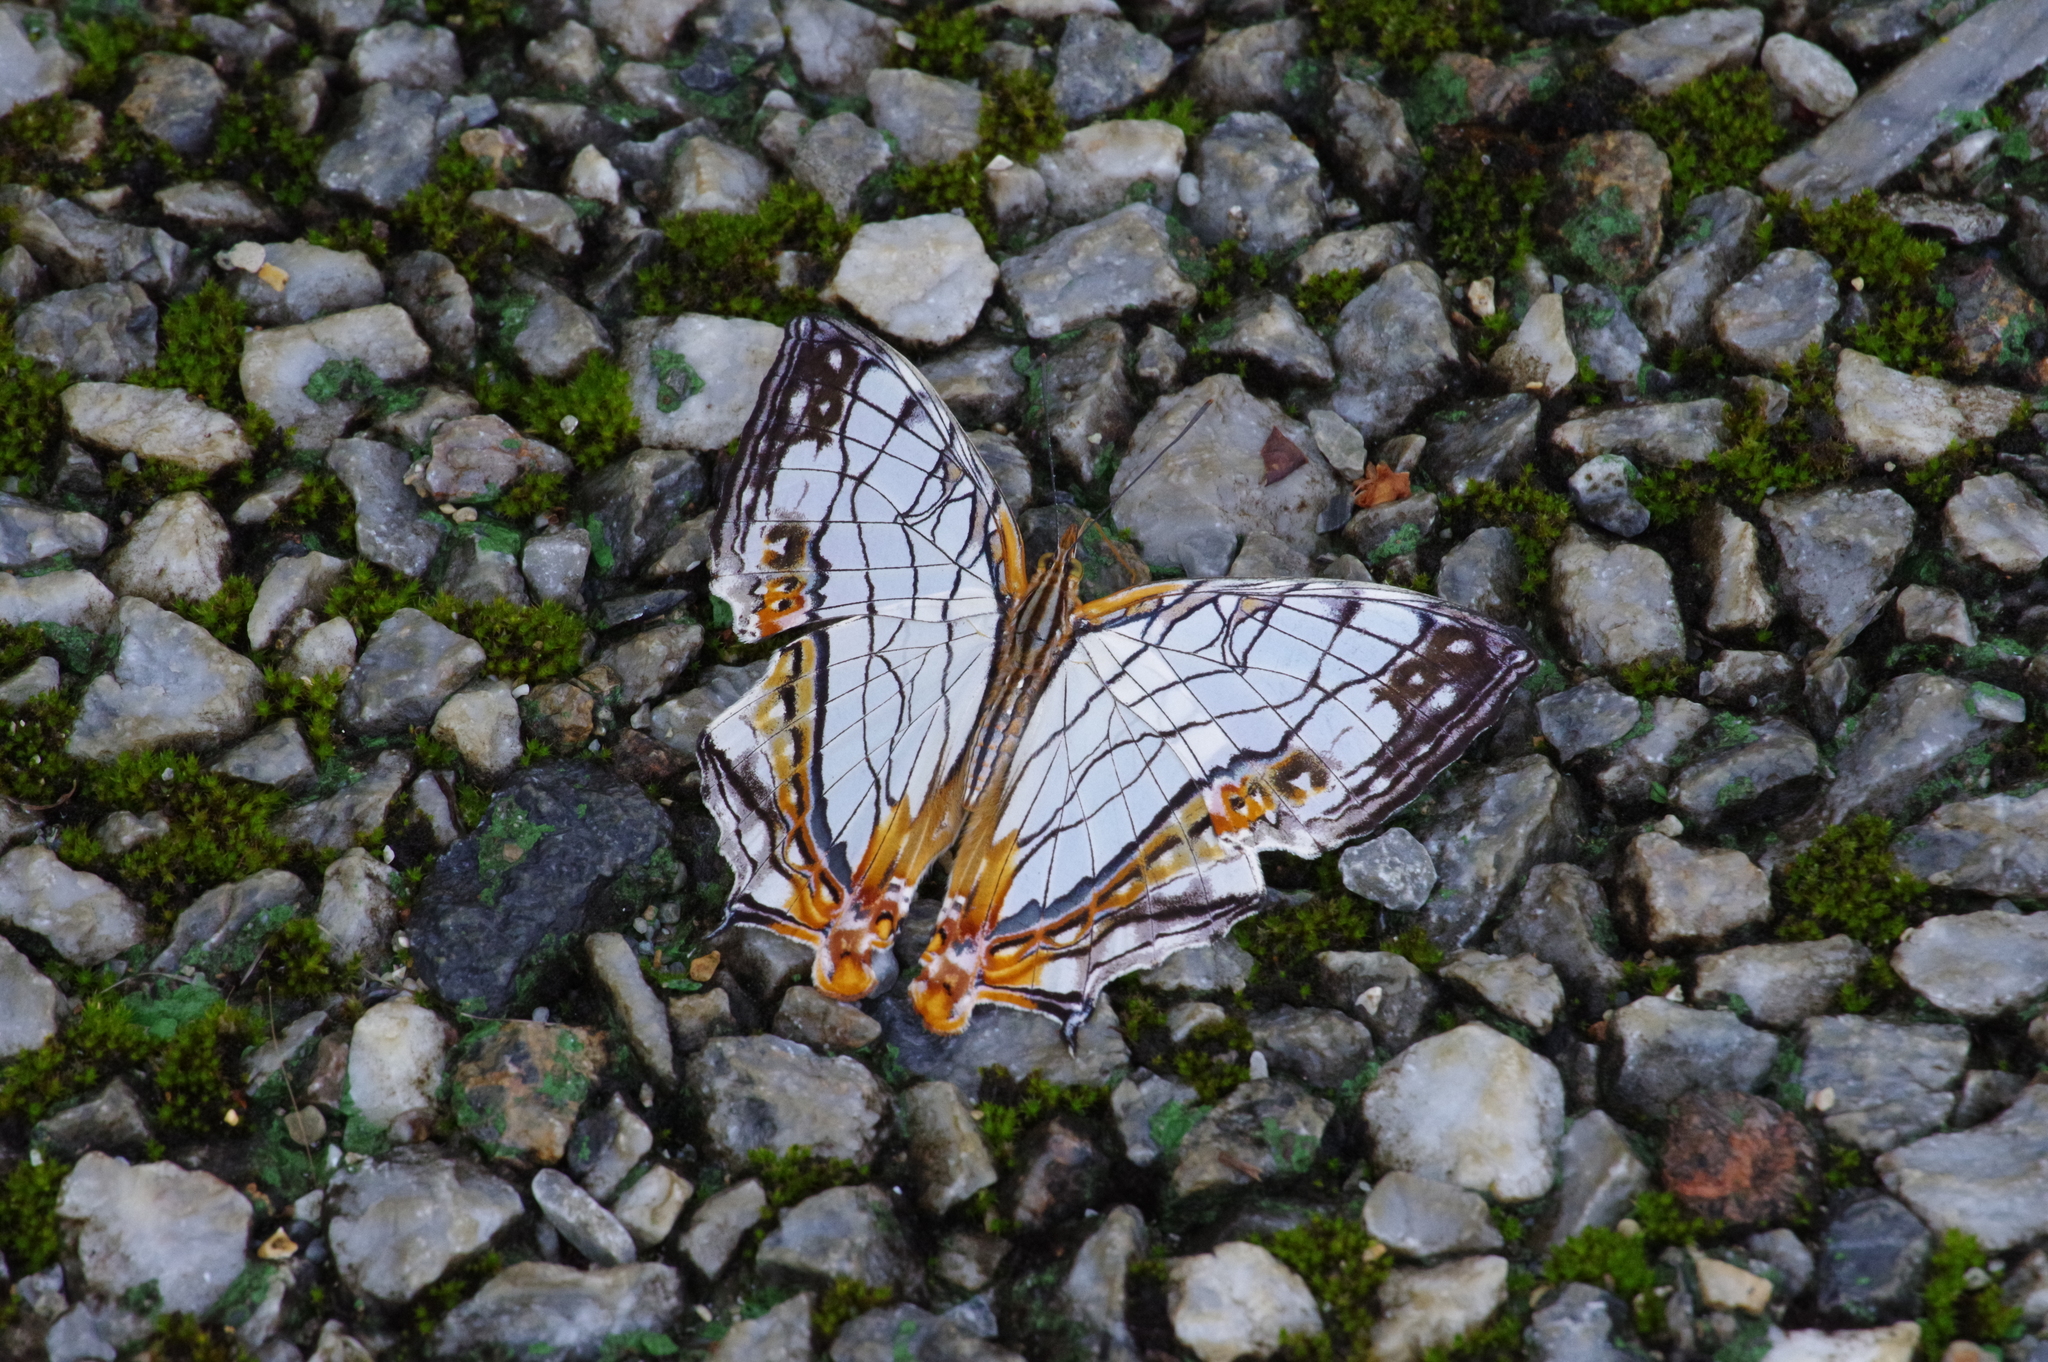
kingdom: Animalia
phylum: Arthropoda
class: Insecta
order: Lepidoptera
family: Nymphalidae
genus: Cyrestis
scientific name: Cyrestis thyodamas
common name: Common mapwing
